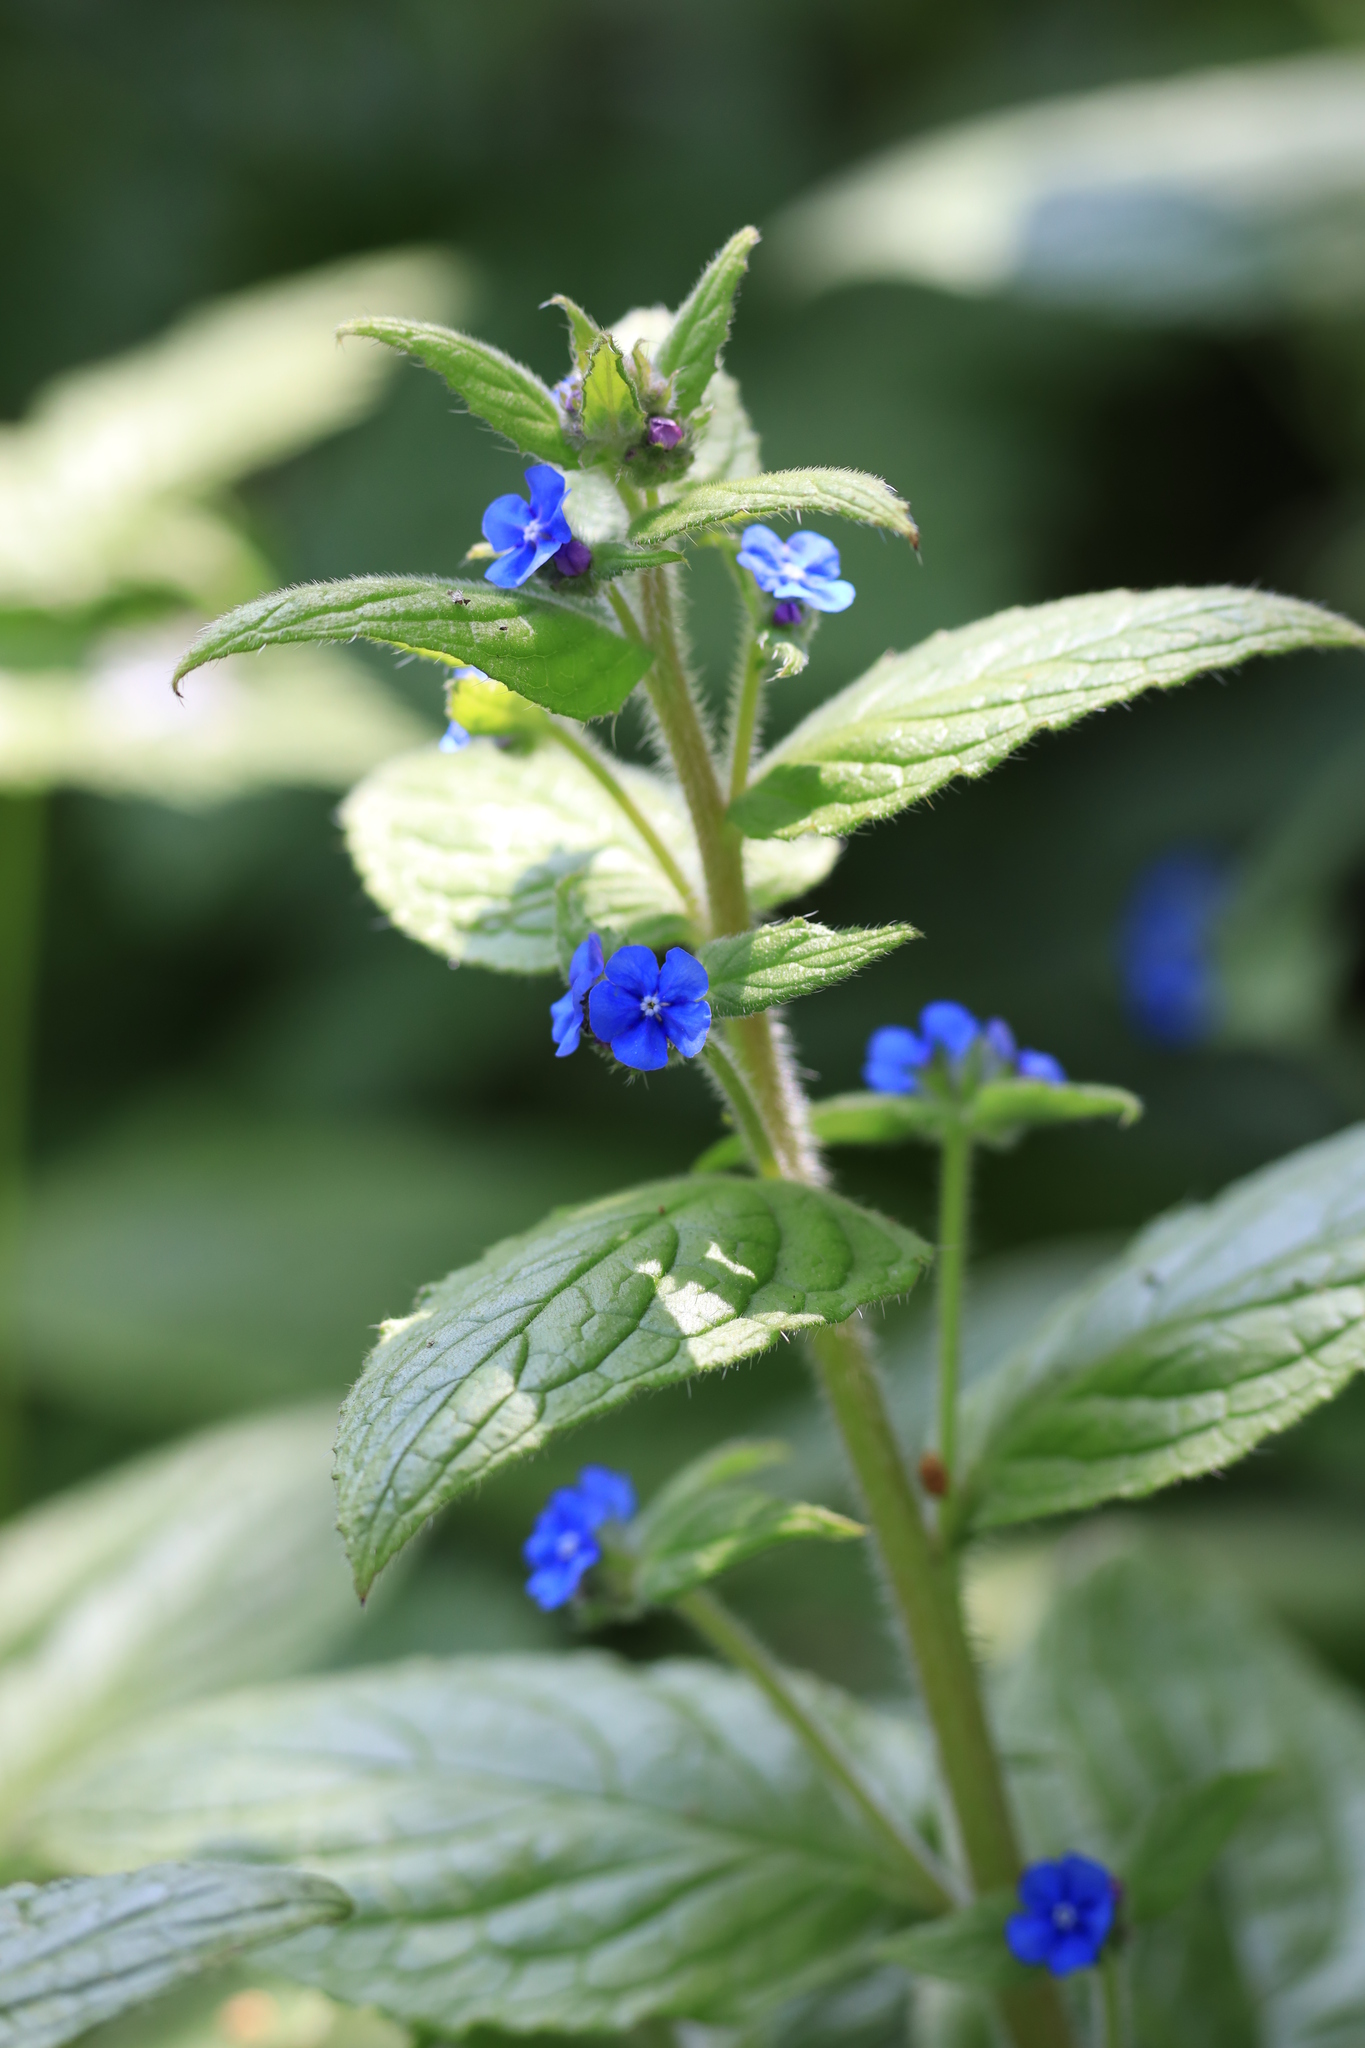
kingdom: Plantae
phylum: Tracheophyta
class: Magnoliopsida
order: Boraginales
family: Boraginaceae
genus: Pentaglottis
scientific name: Pentaglottis sempervirens
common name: Green alkanet
